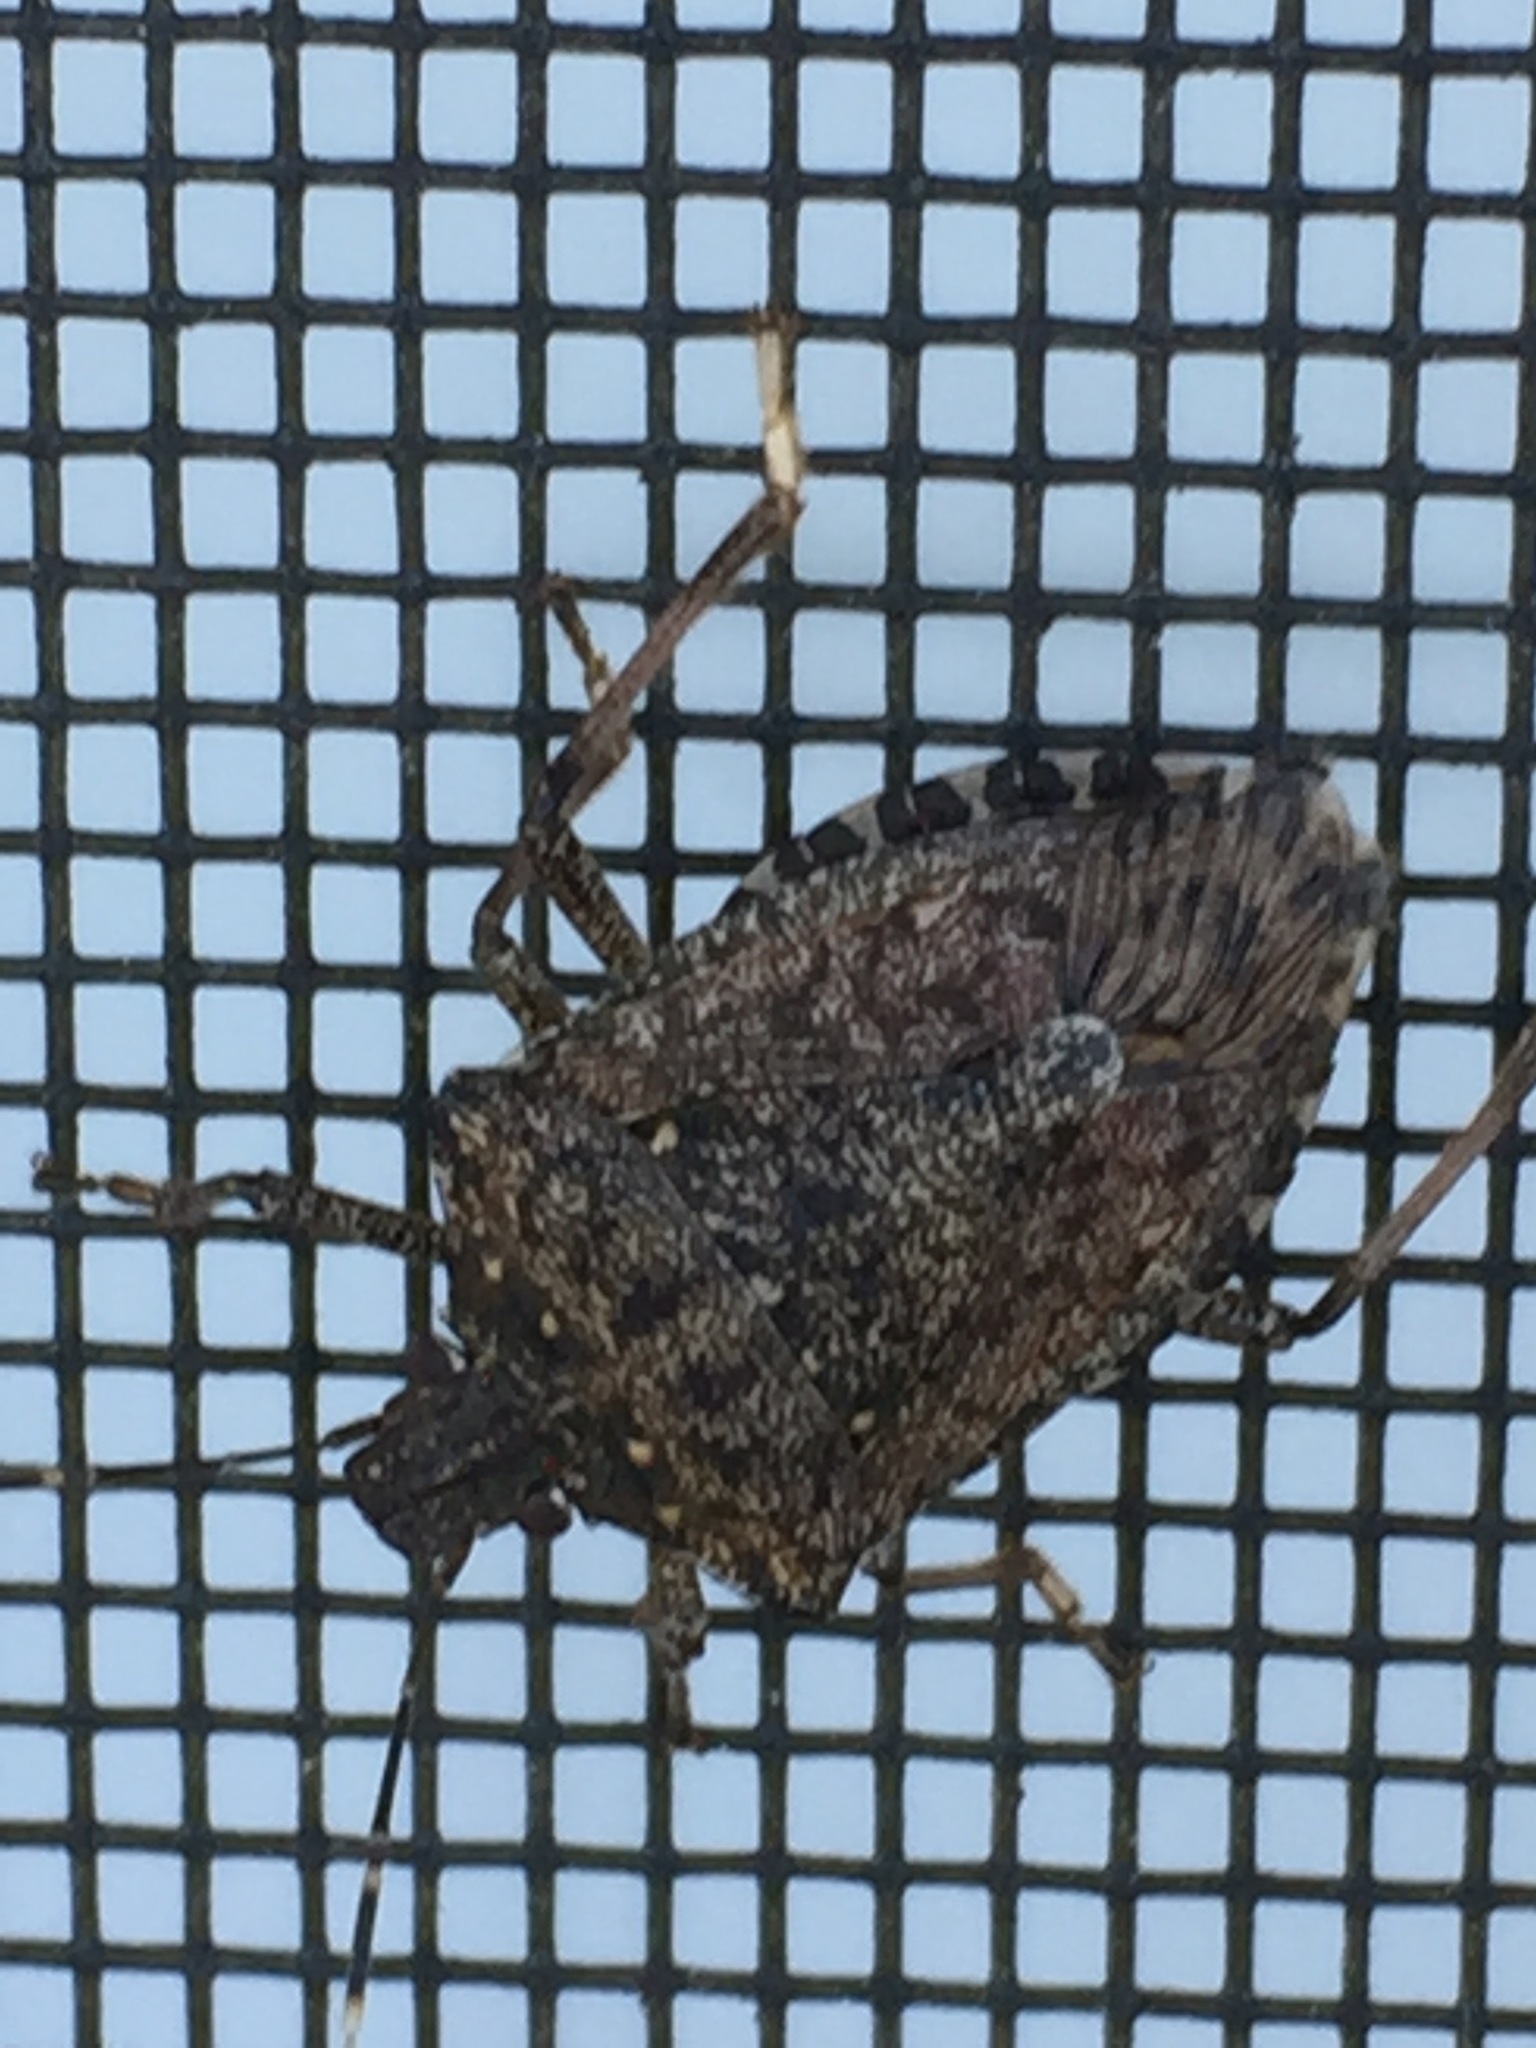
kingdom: Animalia
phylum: Arthropoda
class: Insecta
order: Hemiptera
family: Pentatomidae
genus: Halyomorpha
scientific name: Halyomorpha halys
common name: Brown marmorated stink bug
